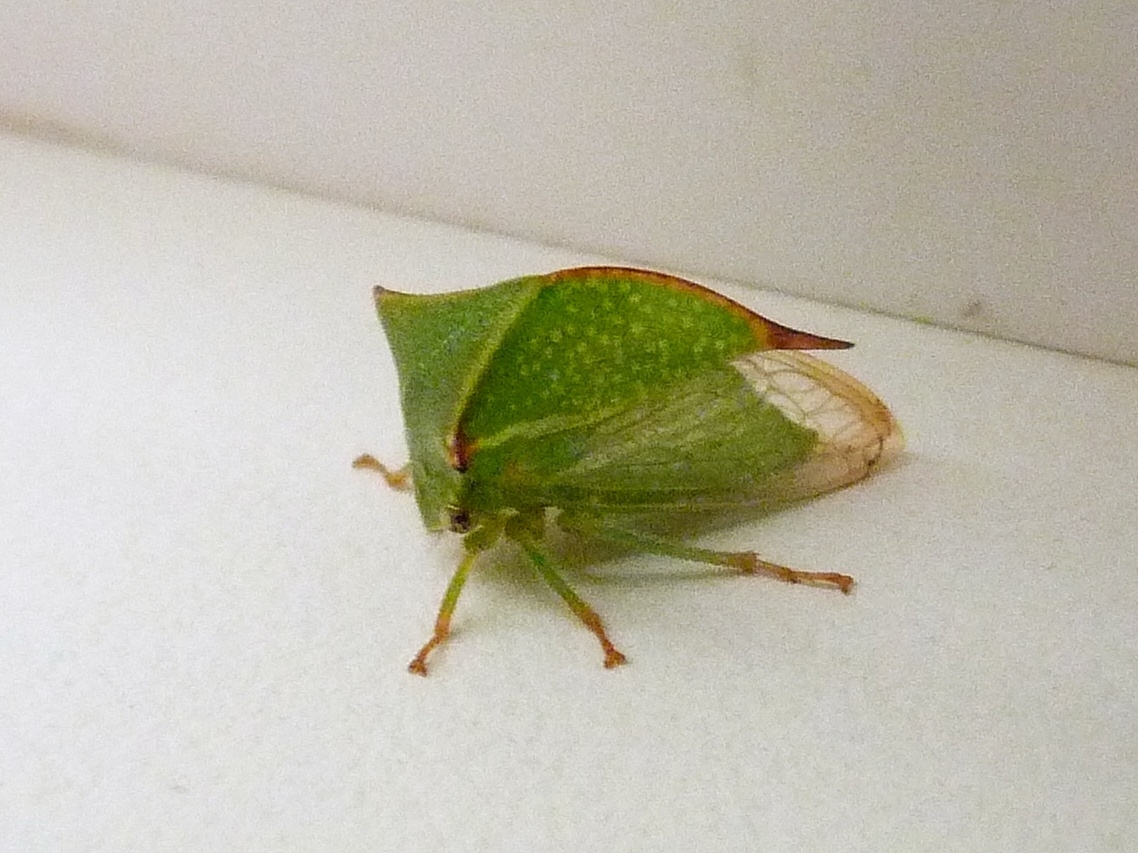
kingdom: Animalia
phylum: Arthropoda
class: Insecta
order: Hemiptera
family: Membracidae
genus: Stictocephala
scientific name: Stictocephala bisonia
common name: American buffalo treehopper
